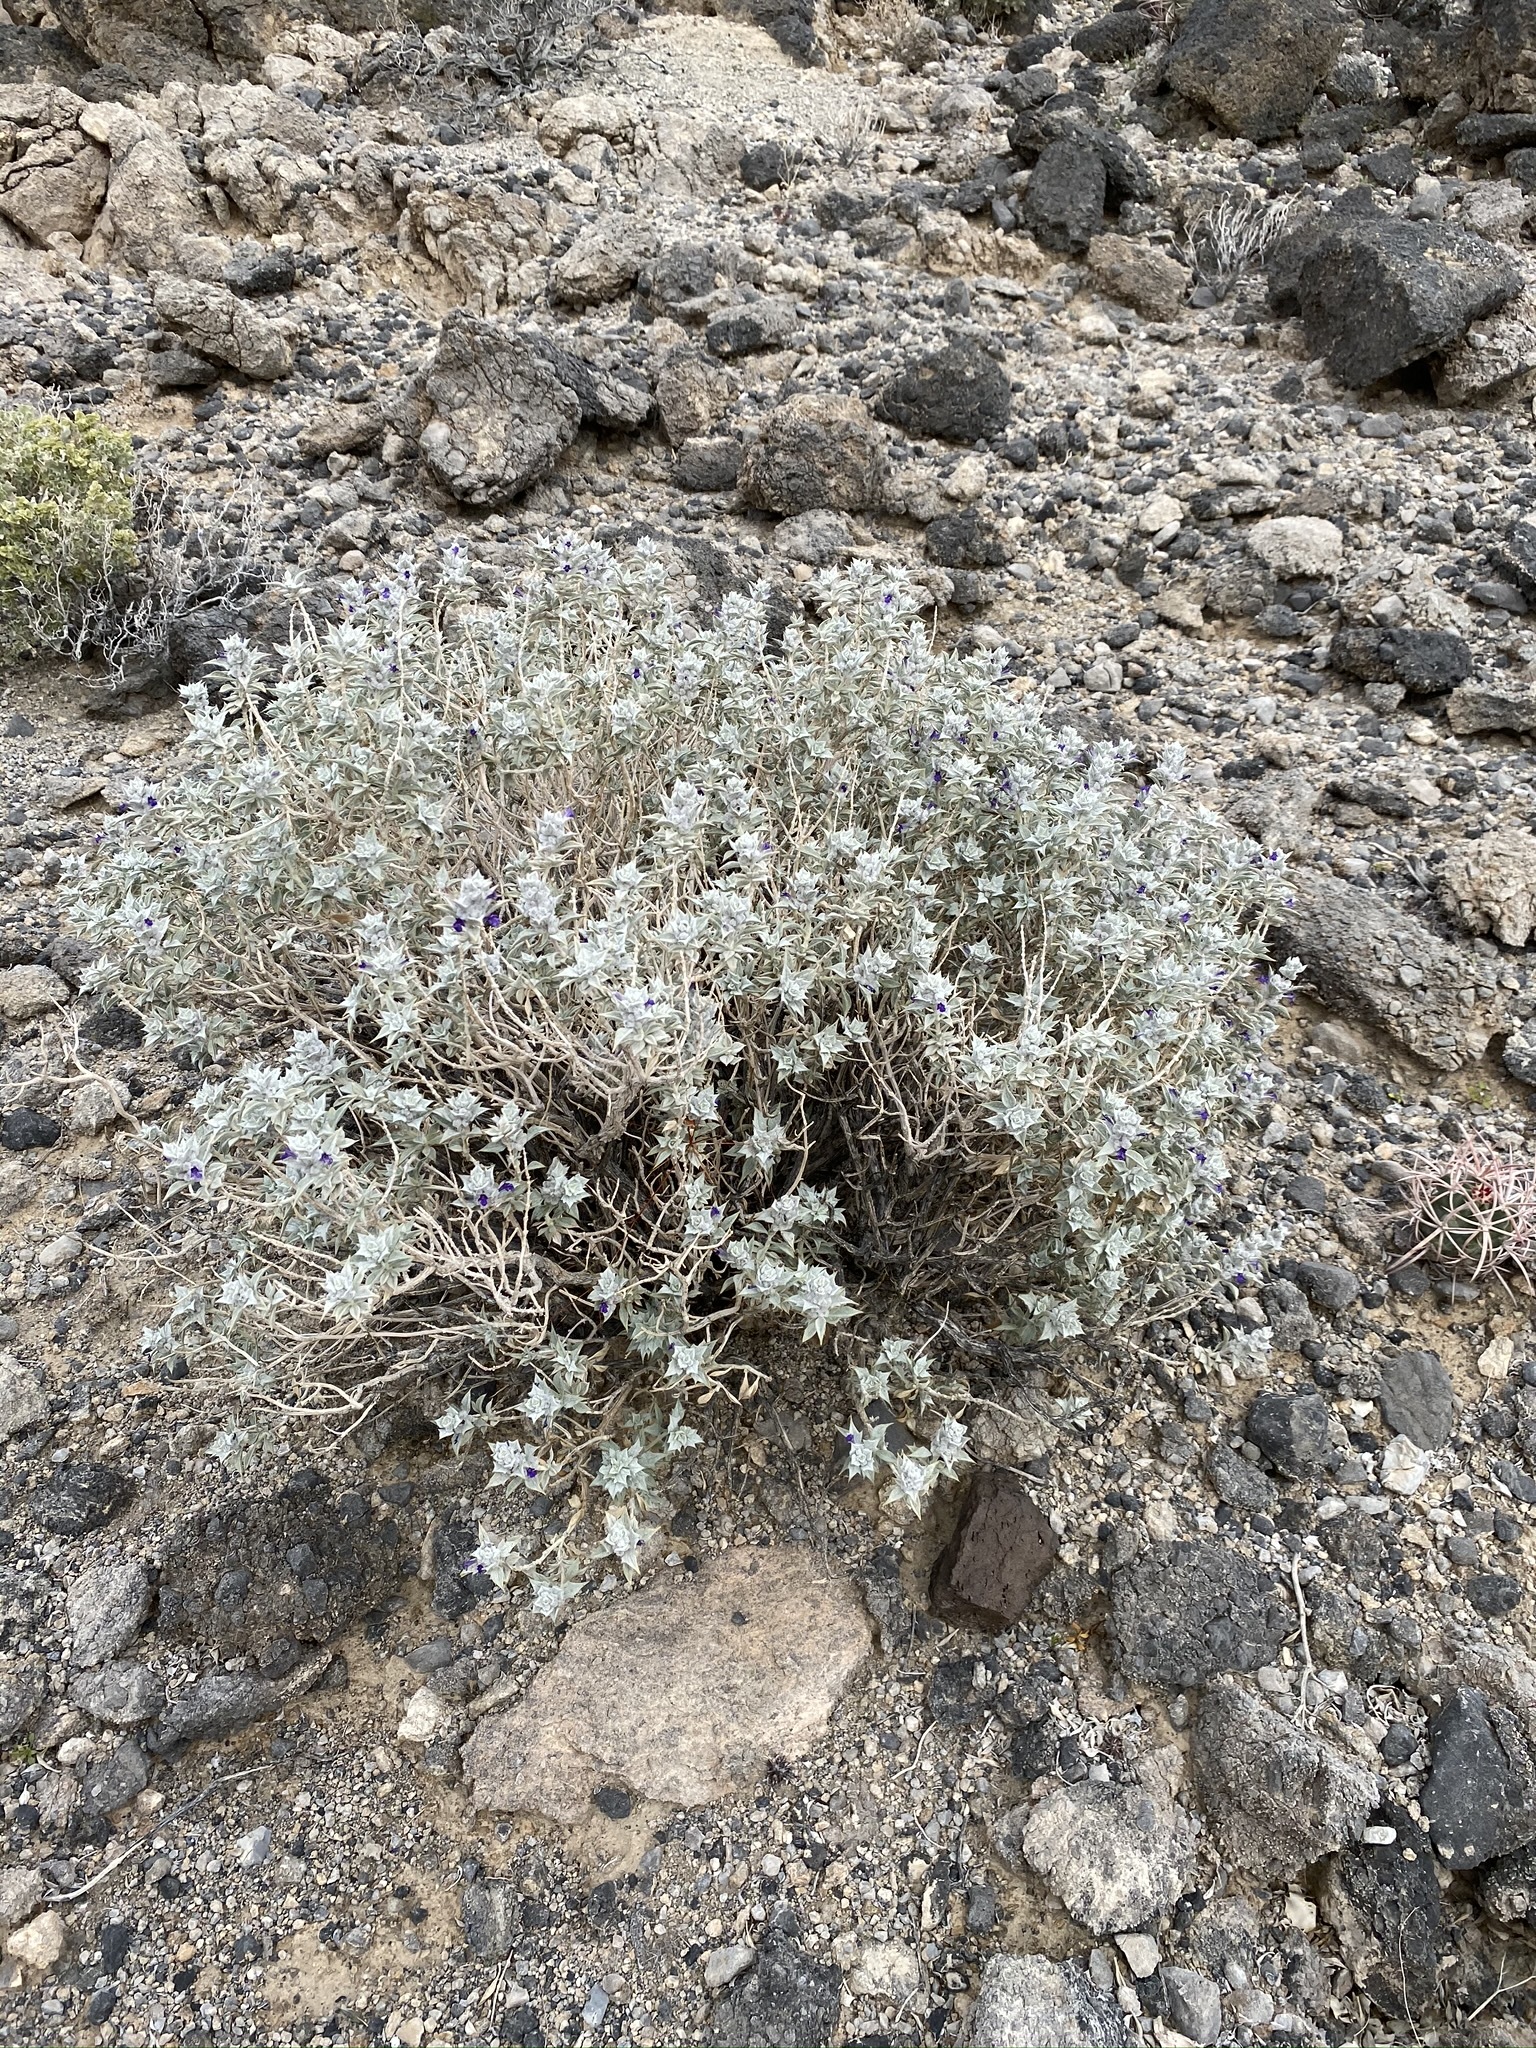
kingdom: Plantae
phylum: Tracheophyta
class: Magnoliopsida
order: Lamiales
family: Lamiaceae
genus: Salvia
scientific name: Salvia funerea
